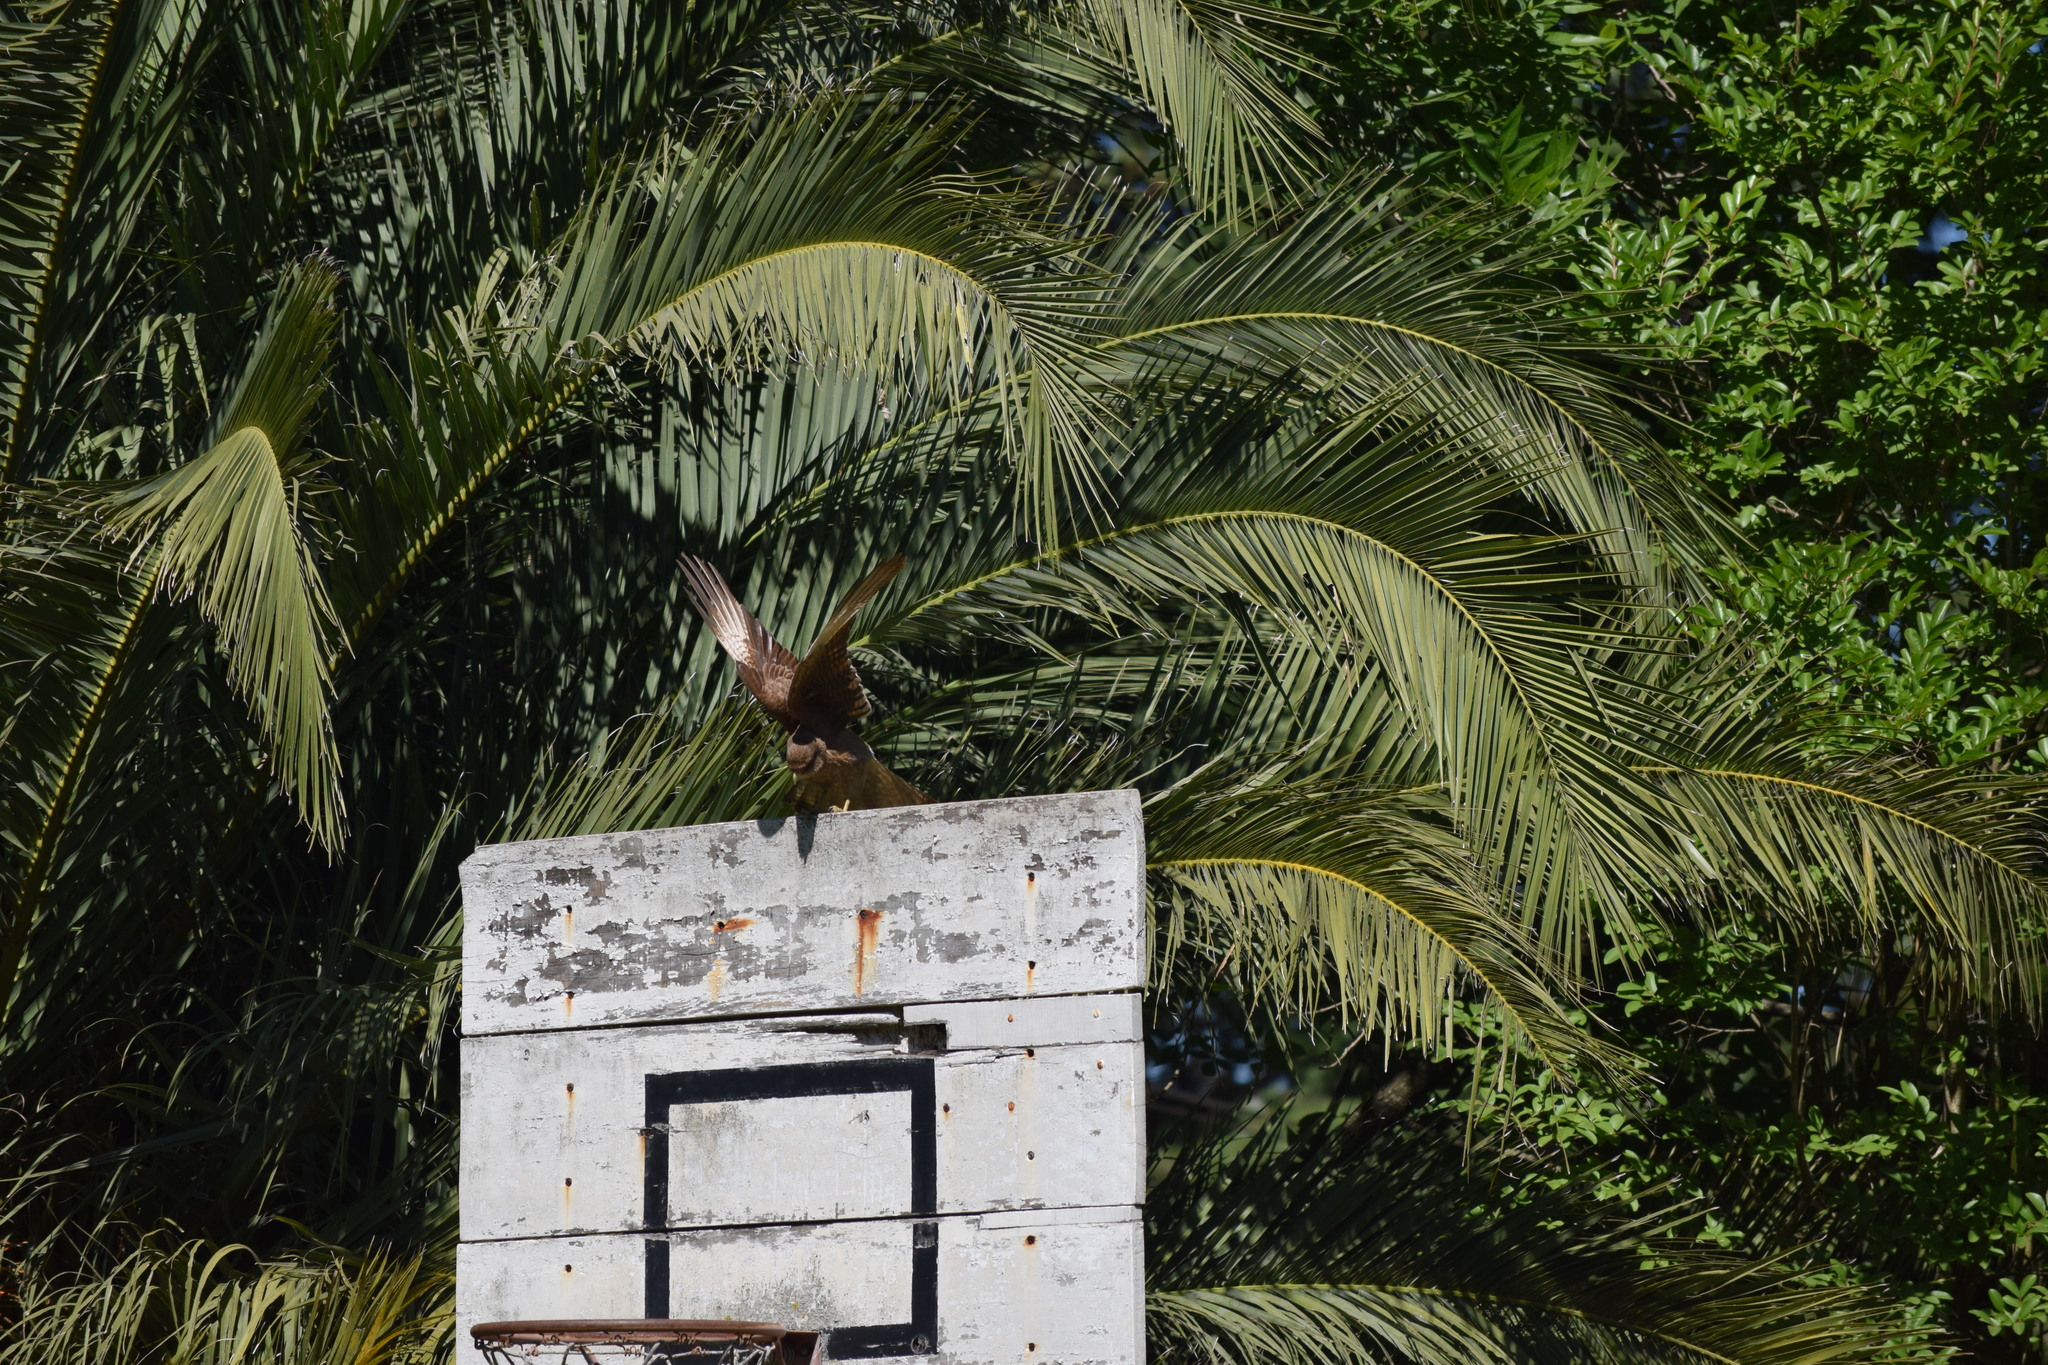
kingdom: Animalia
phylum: Chordata
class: Aves
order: Falconiformes
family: Falconidae
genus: Daptrius
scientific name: Daptrius
